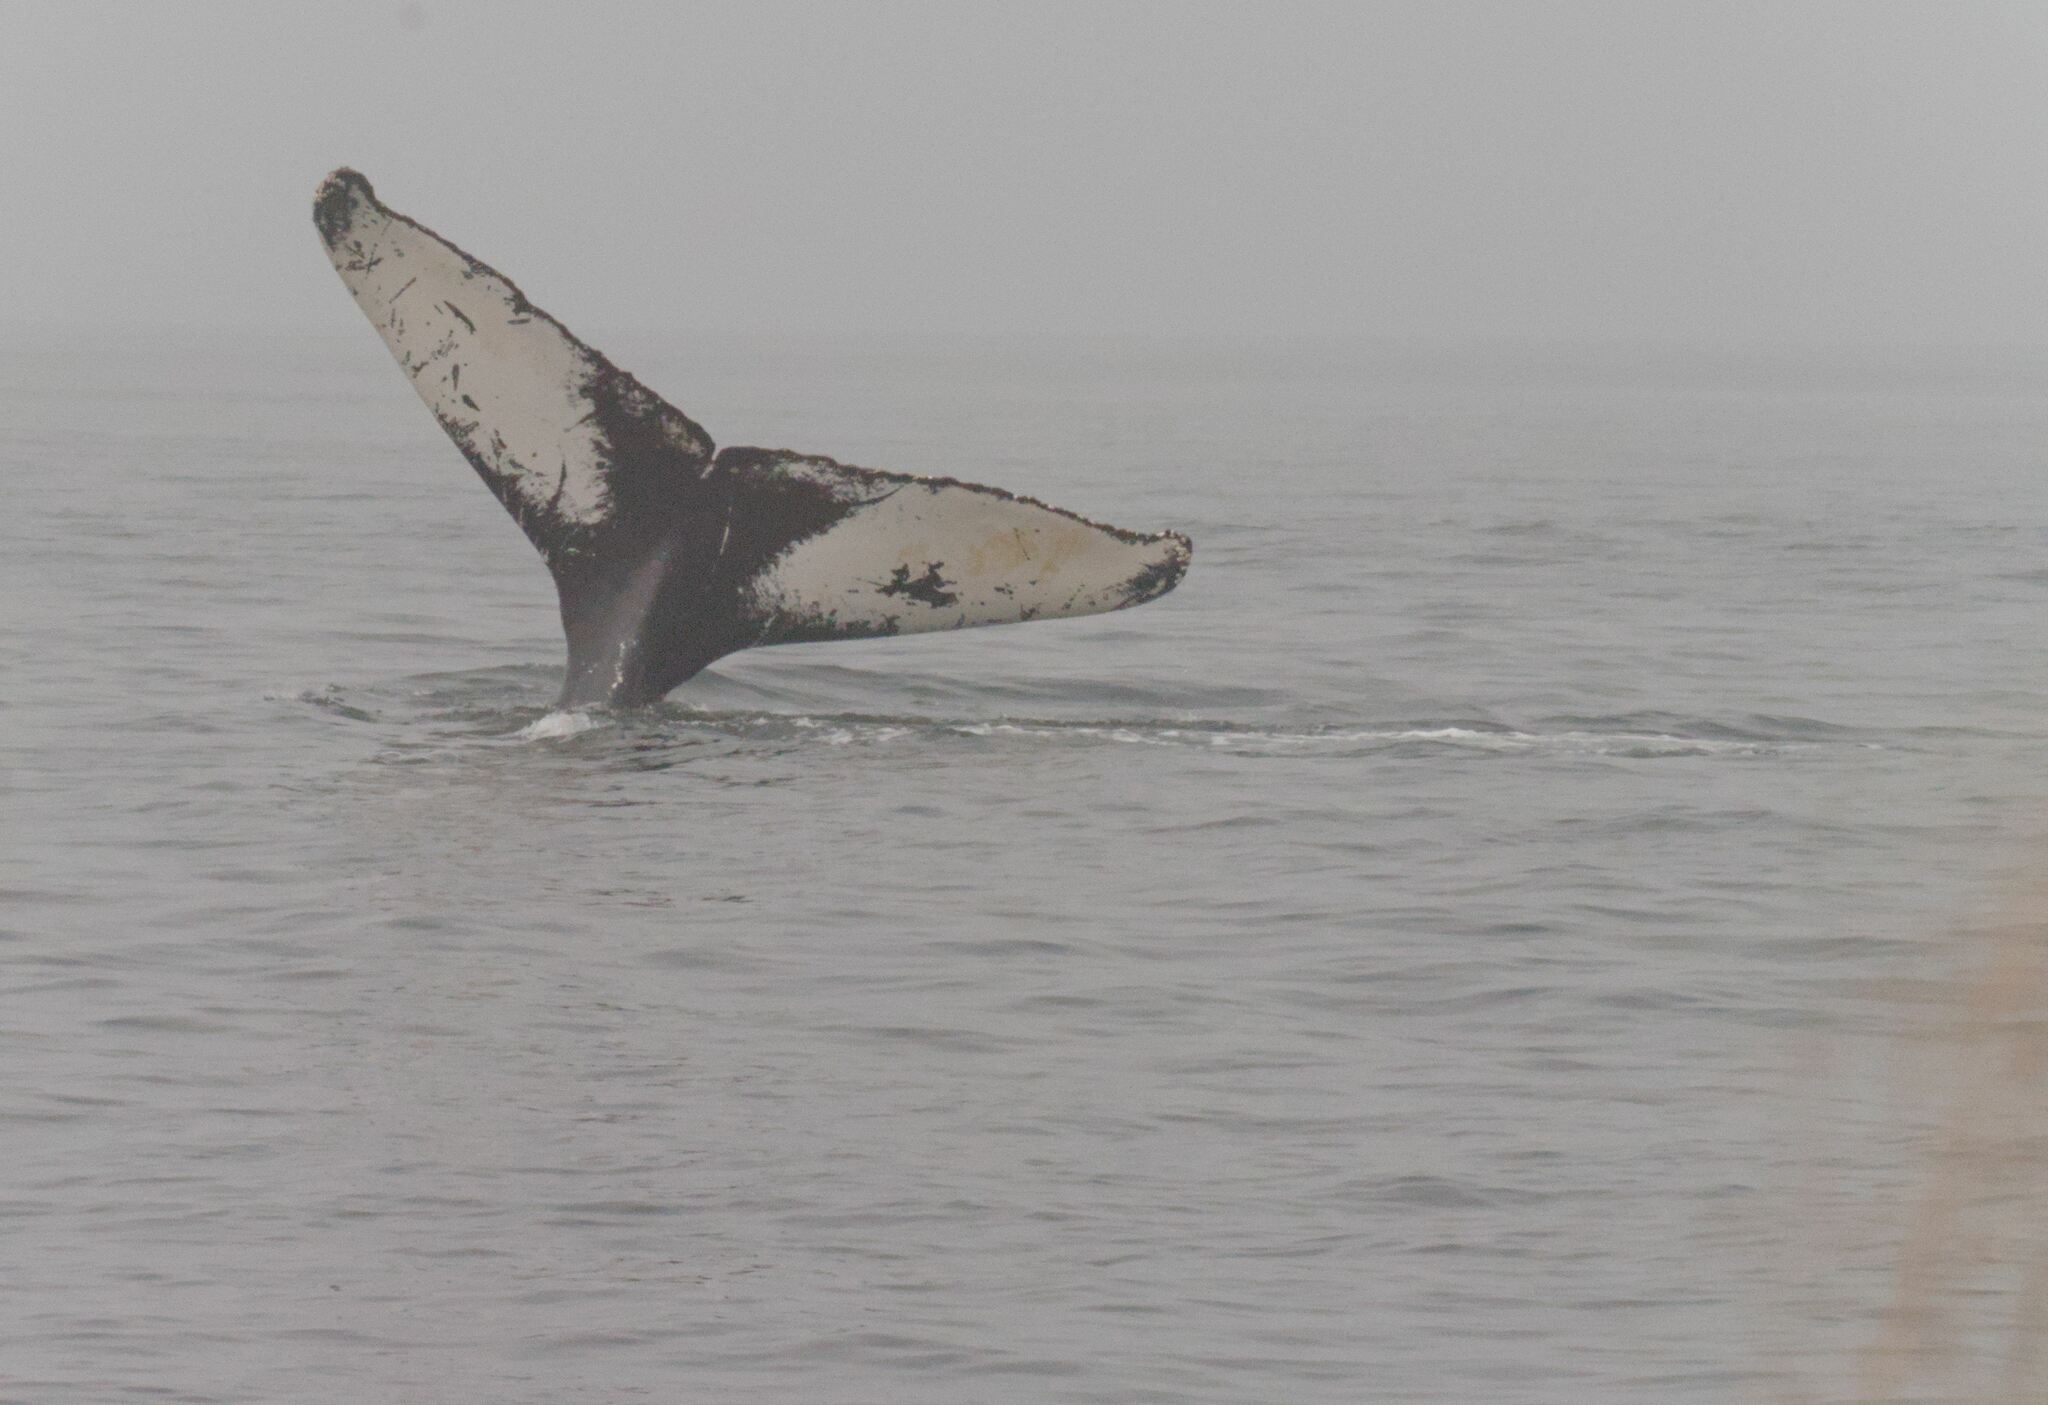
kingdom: Animalia
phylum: Chordata
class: Mammalia
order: Cetacea
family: Balaenopteridae
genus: Megaptera
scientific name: Megaptera novaeangliae
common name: Humpback whale
